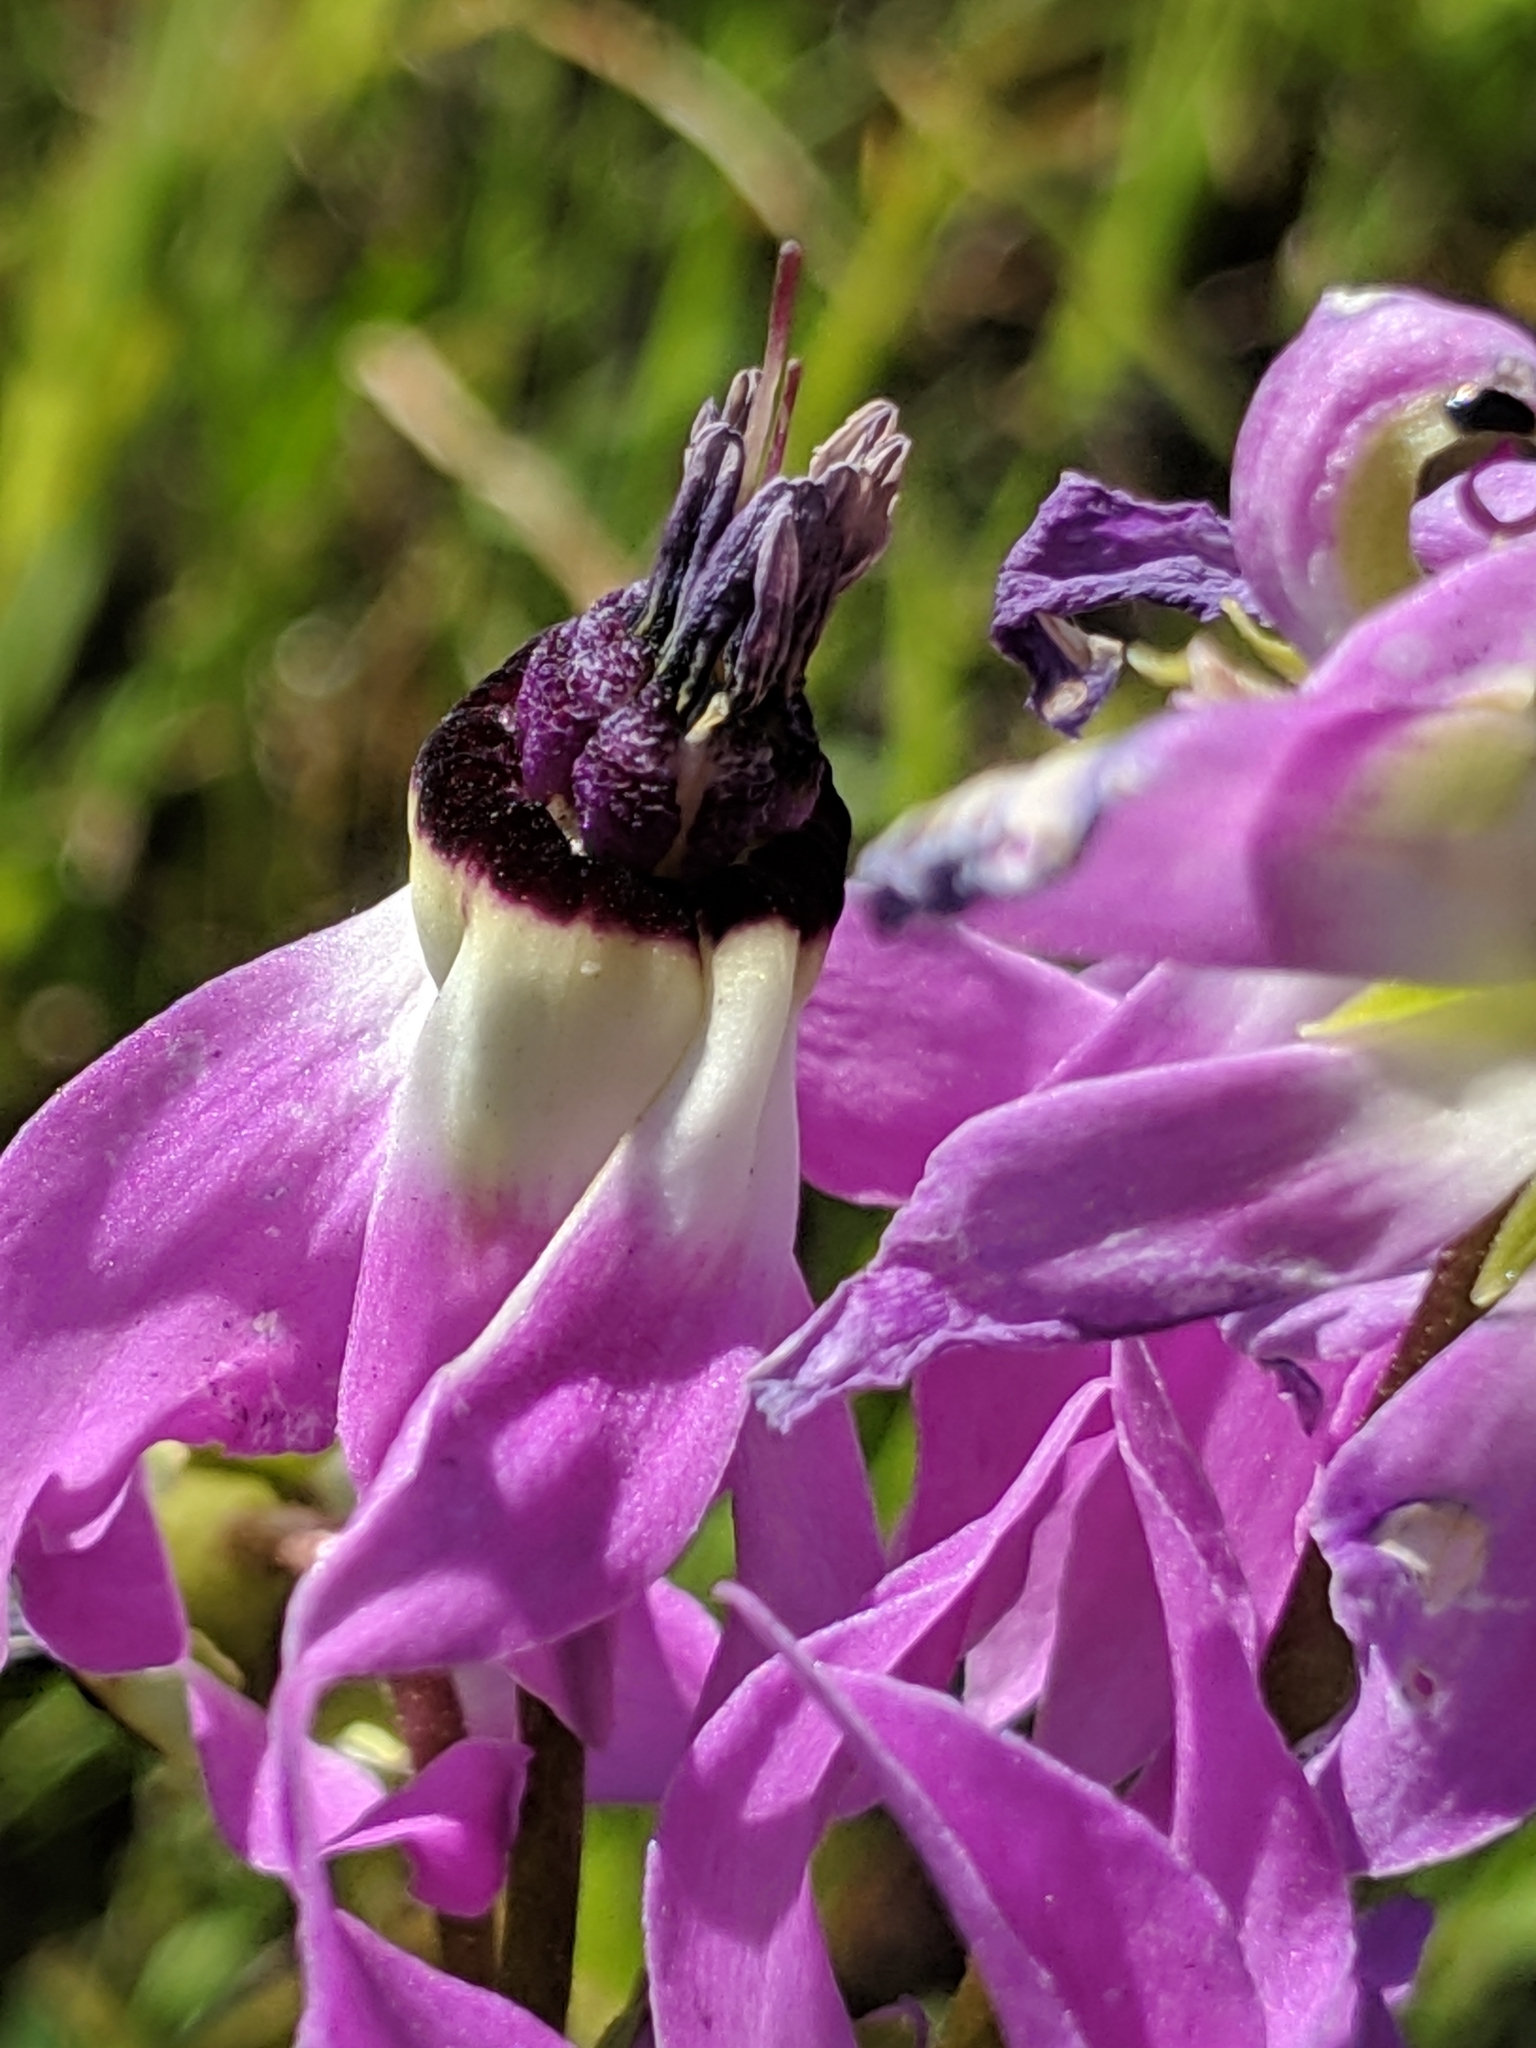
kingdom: Plantae
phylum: Tracheophyta
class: Magnoliopsida
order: Ericales
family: Primulaceae
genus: Dodecatheon
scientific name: Dodecatheon clevelandii
